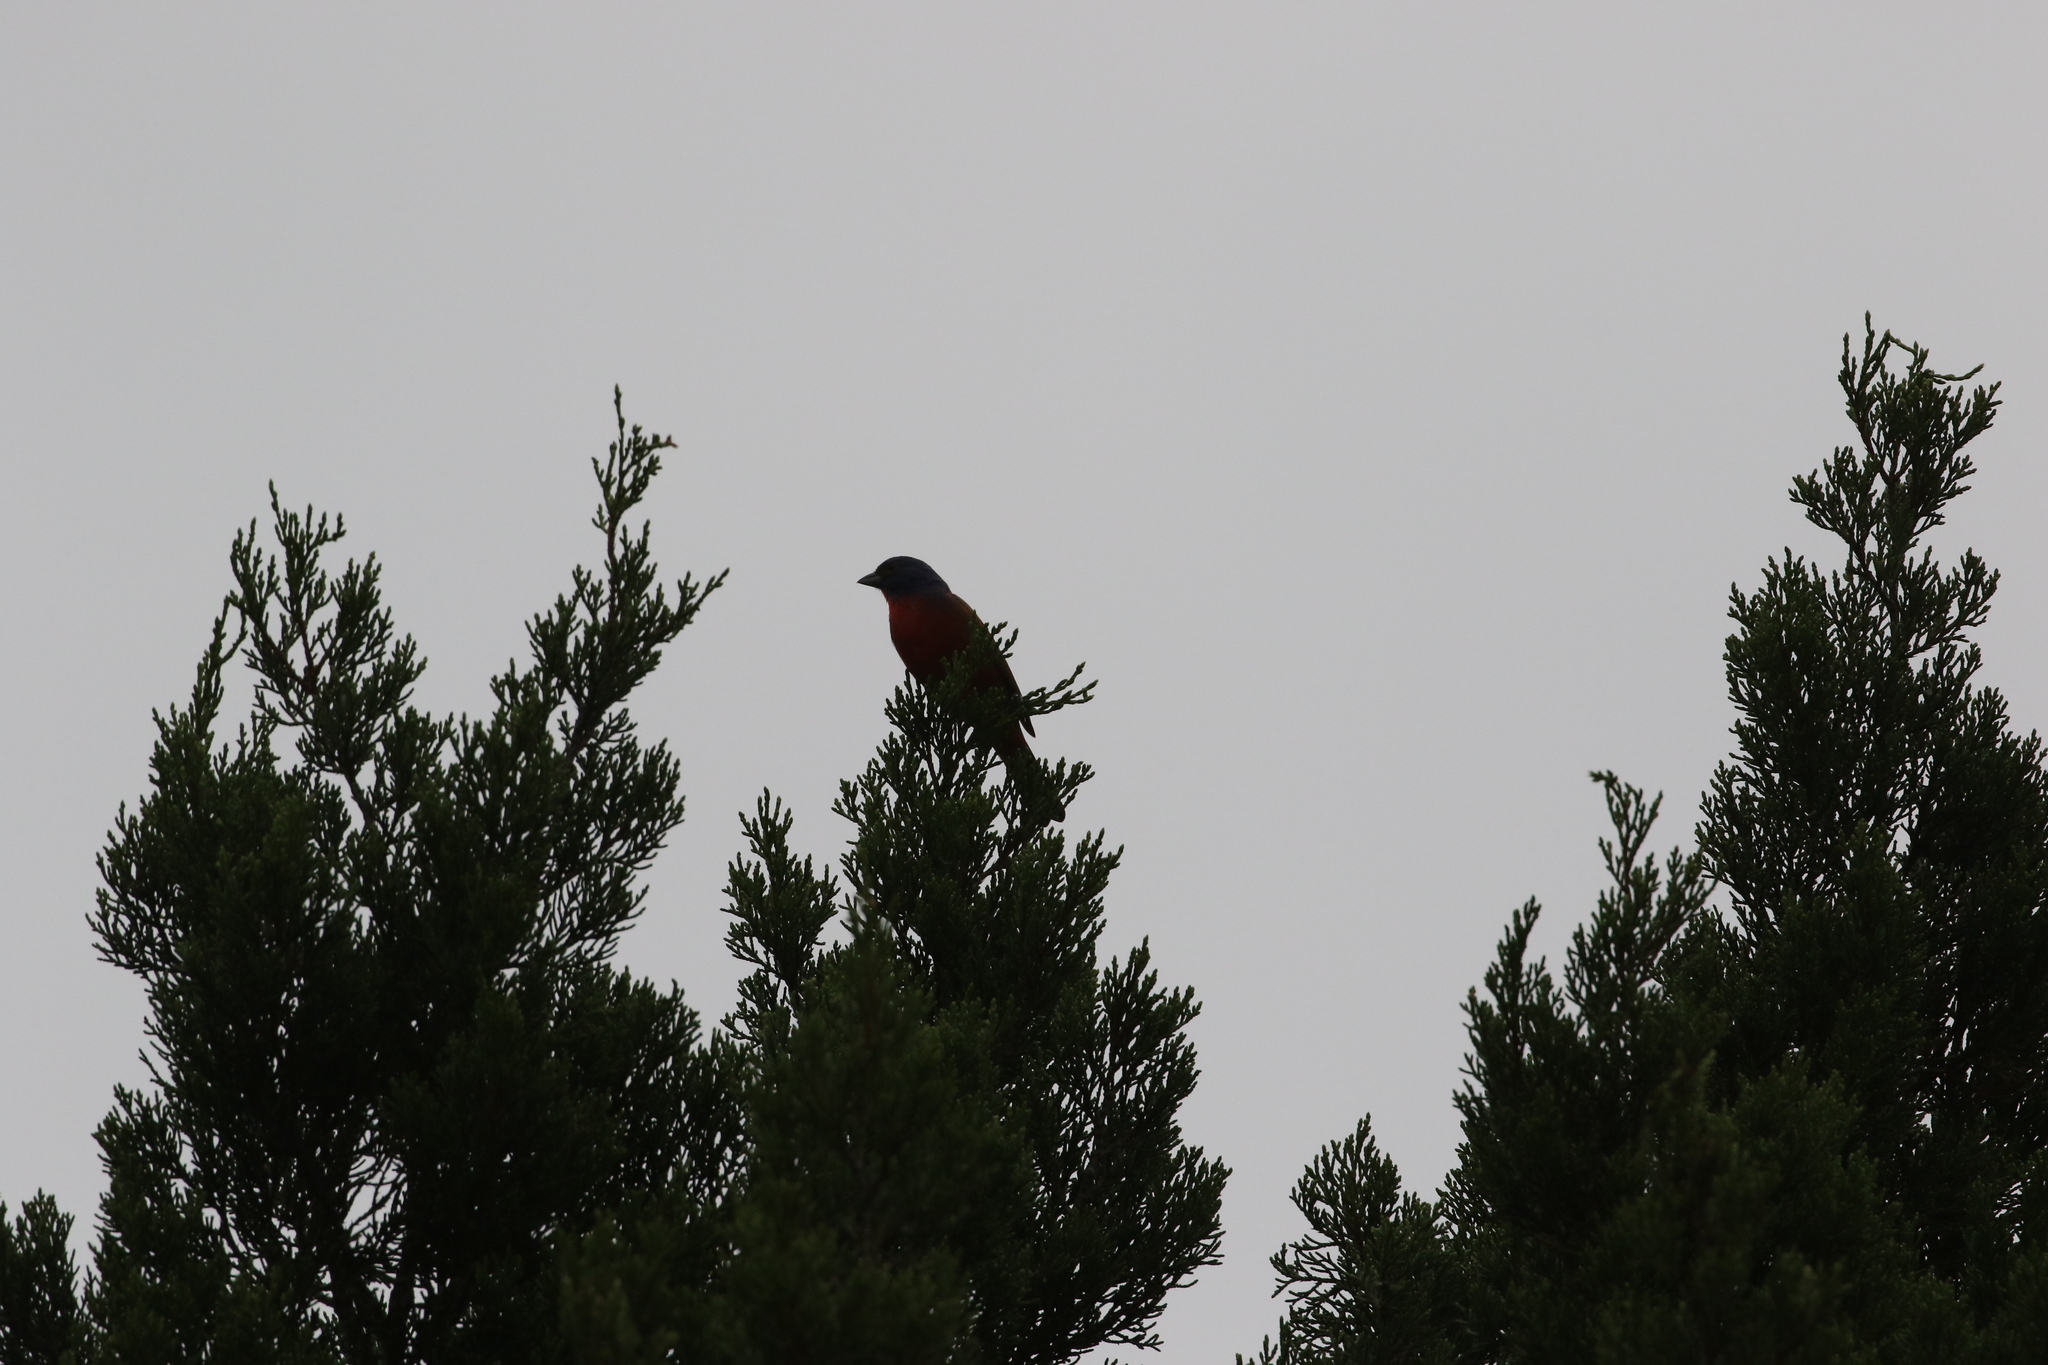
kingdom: Animalia
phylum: Chordata
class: Aves
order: Passeriformes
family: Cardinalidae
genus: Passerina
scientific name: Passerina ciris
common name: Painted bunting
